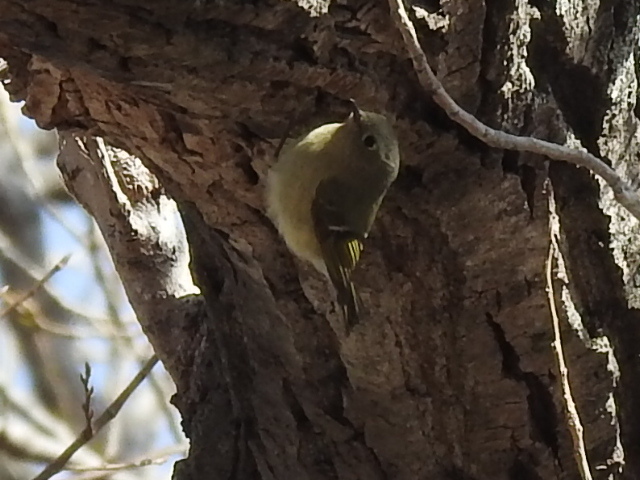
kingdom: Animalia
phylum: Chordata
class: Aves
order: Passeriformes
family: Regulidae
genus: Regulus
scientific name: Regulus calendula
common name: Ruby-crowned kinglet
